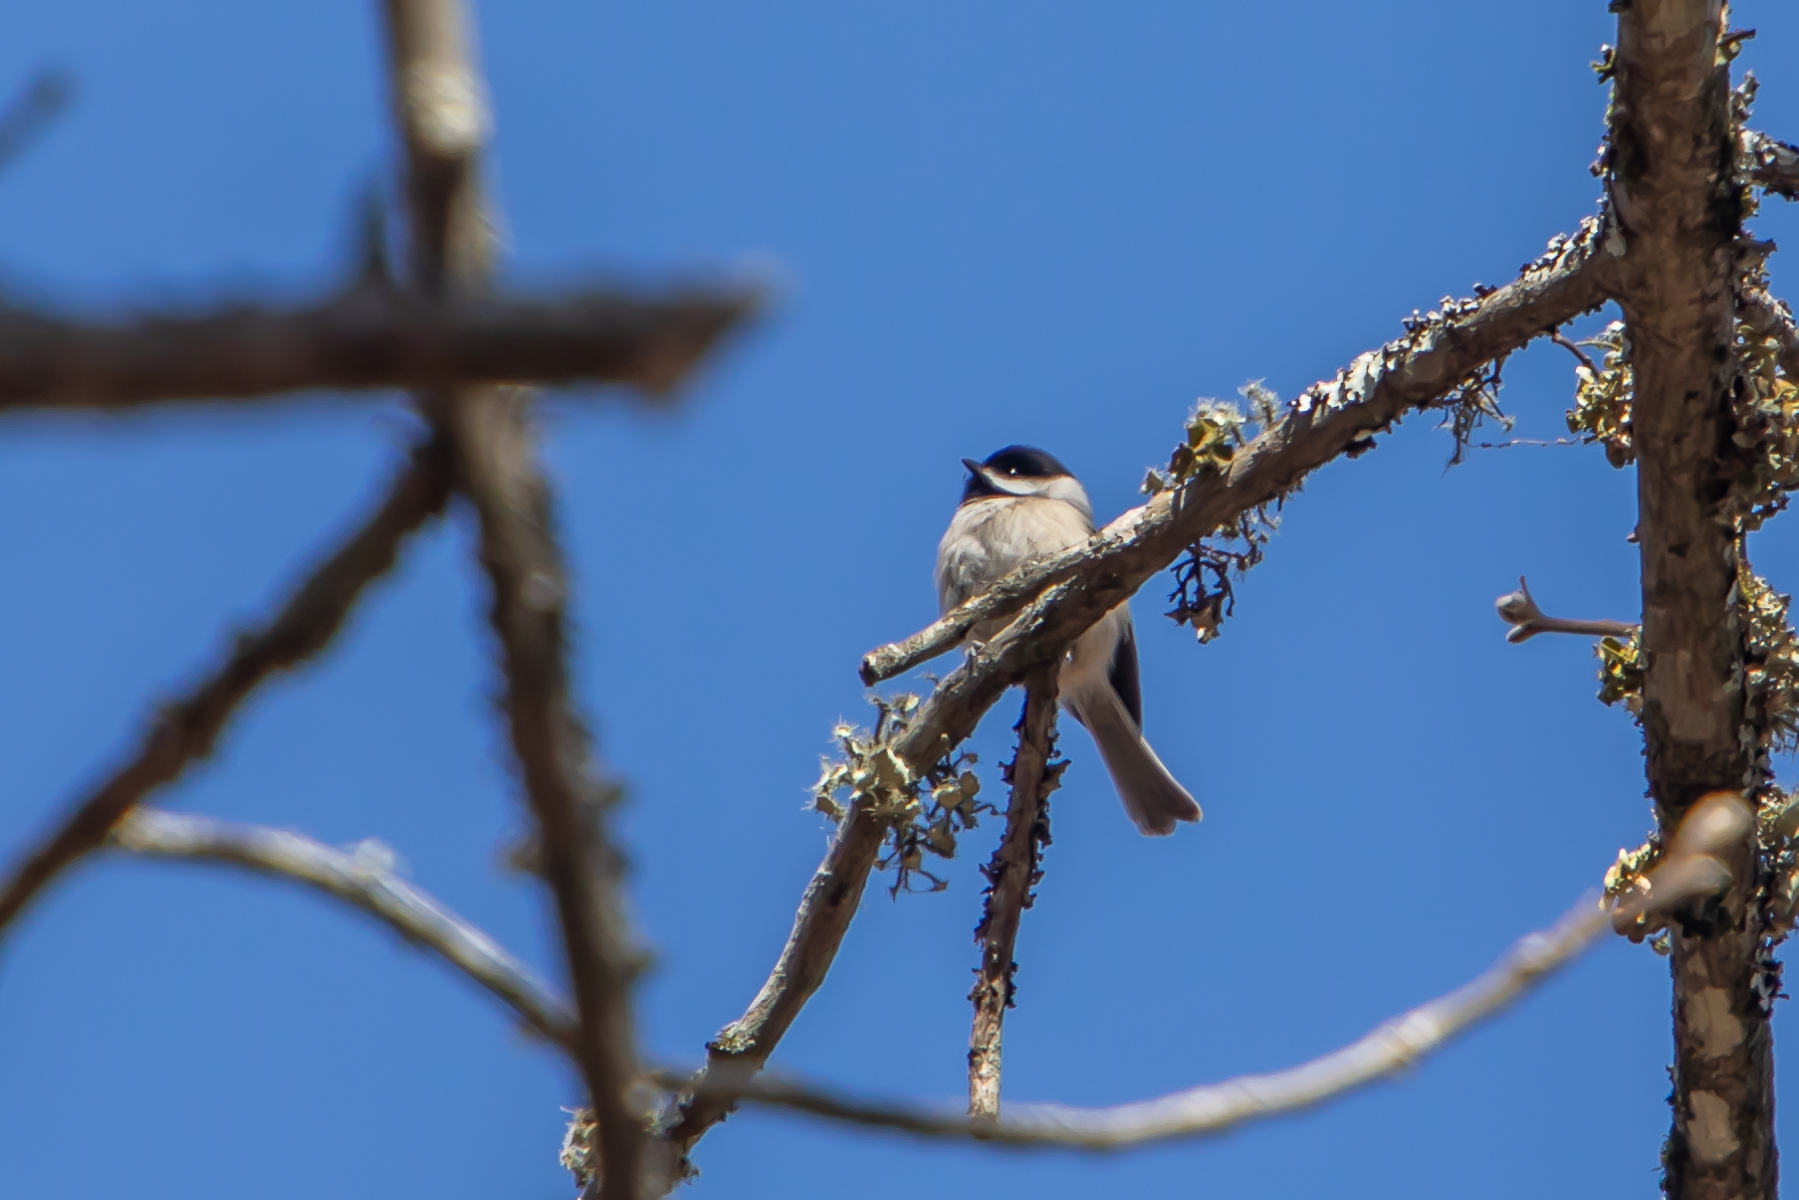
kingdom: Animalia
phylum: Chordata
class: Aves
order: Passeriformes
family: Paridae
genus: Poecile
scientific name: Poecile carolinensis
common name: Carolina chickadee
